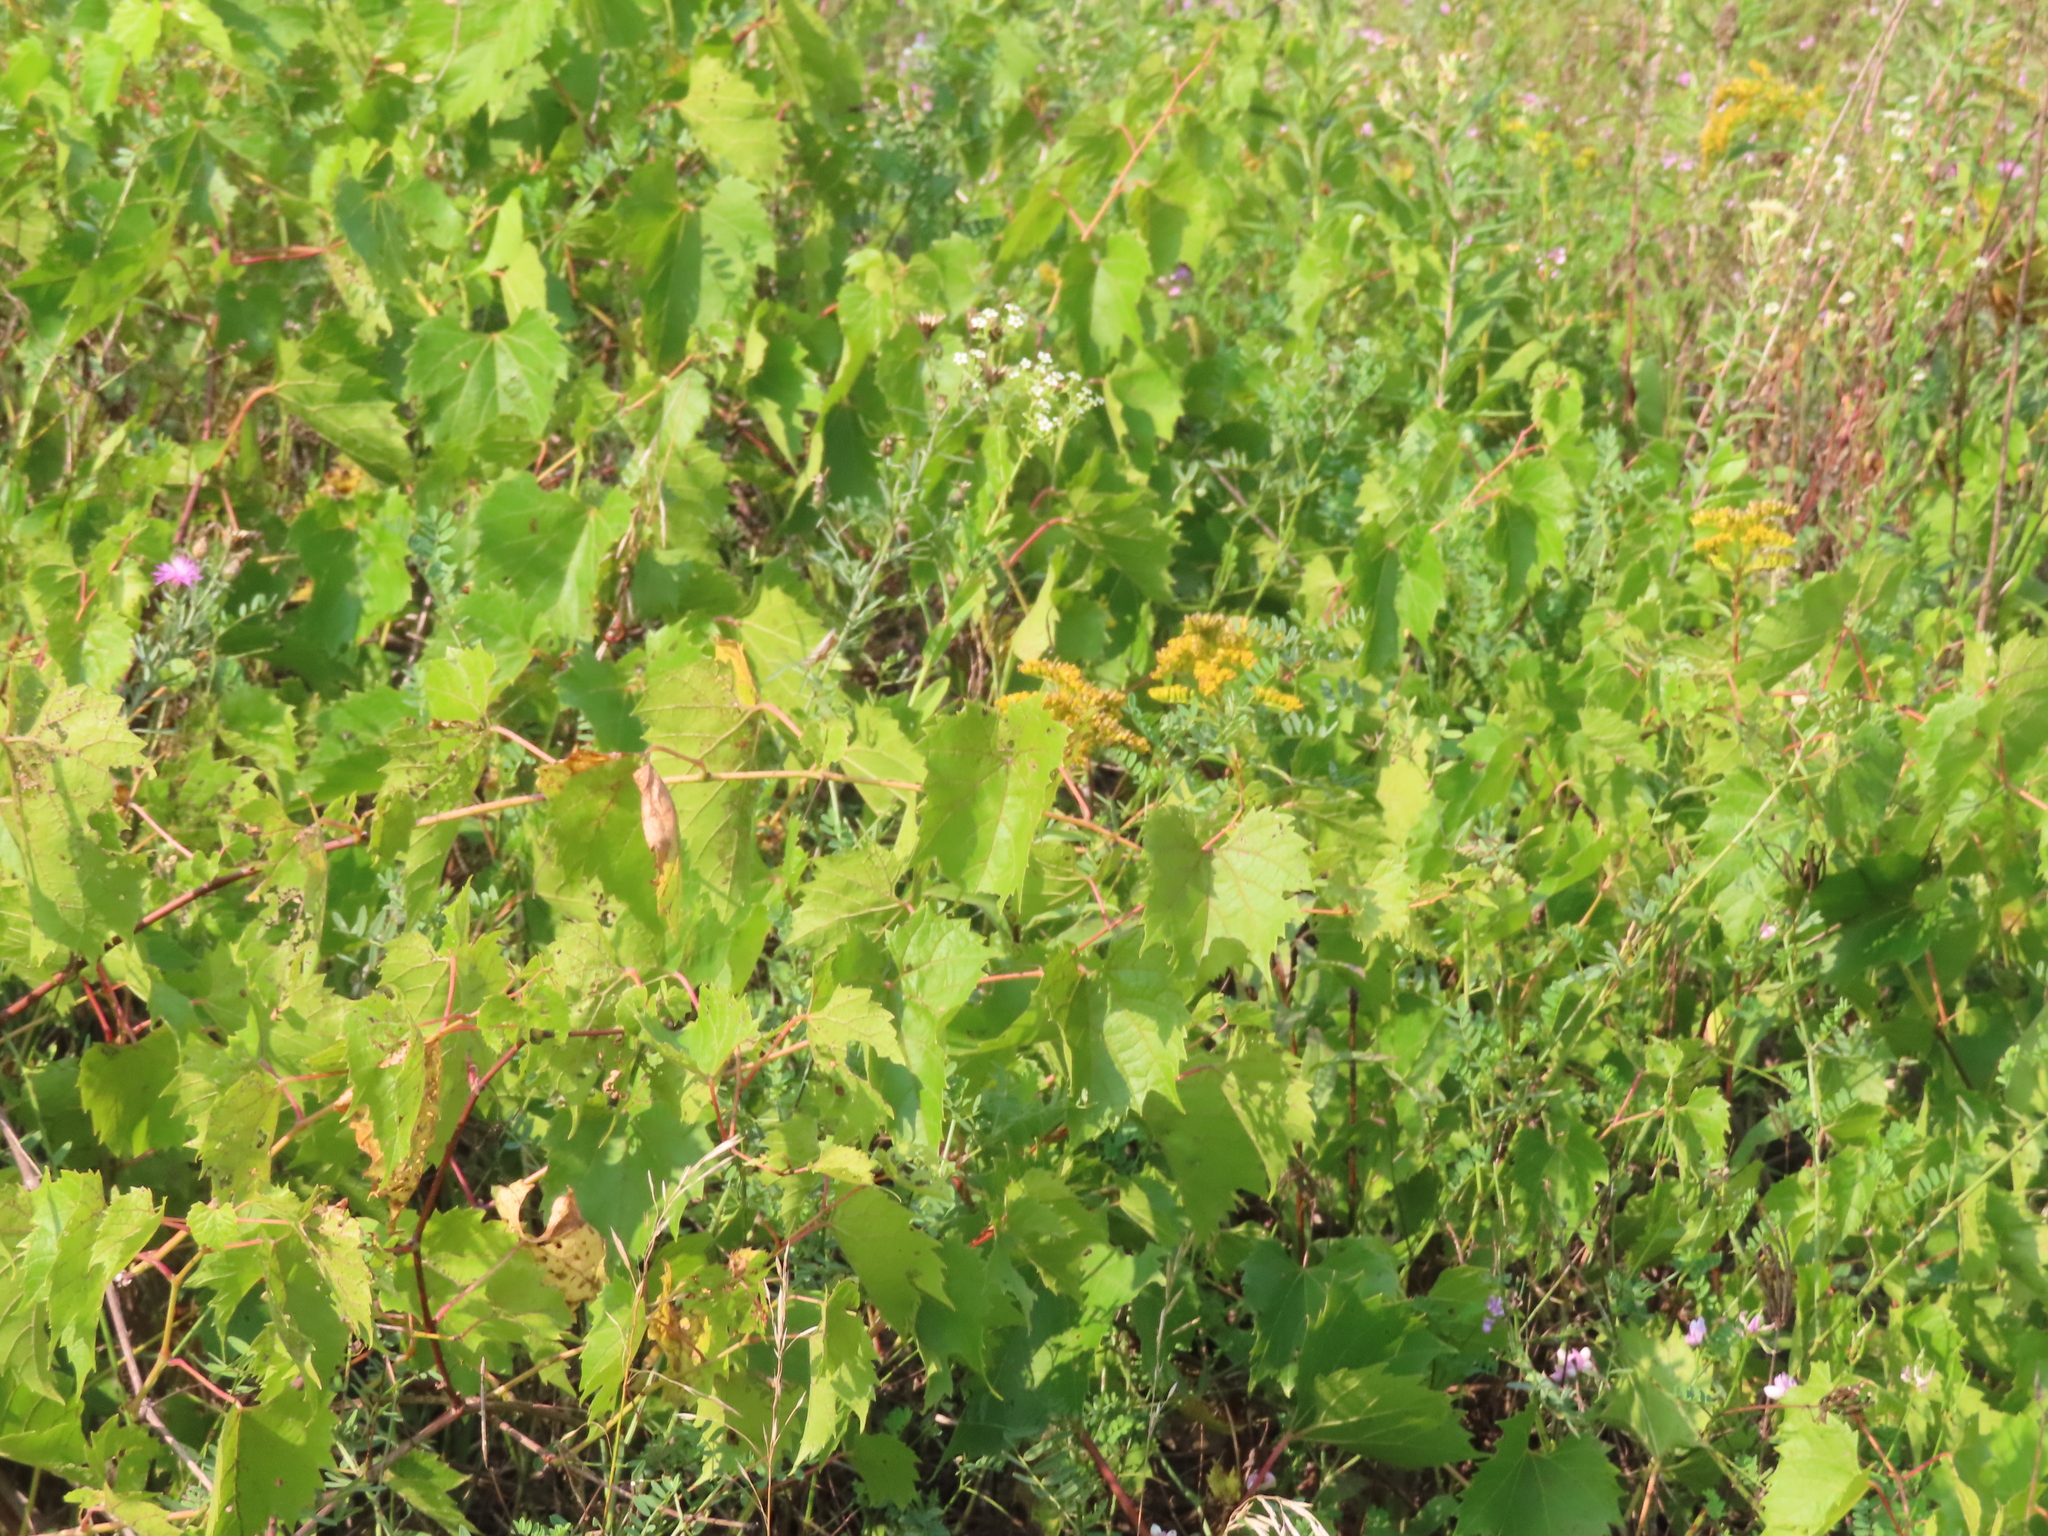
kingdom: Plantae
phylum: Tracheophyta
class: Magnoliopsida
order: Vitales
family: Vitaceae
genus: Vitis
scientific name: Vitis riparia
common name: Frost grape
